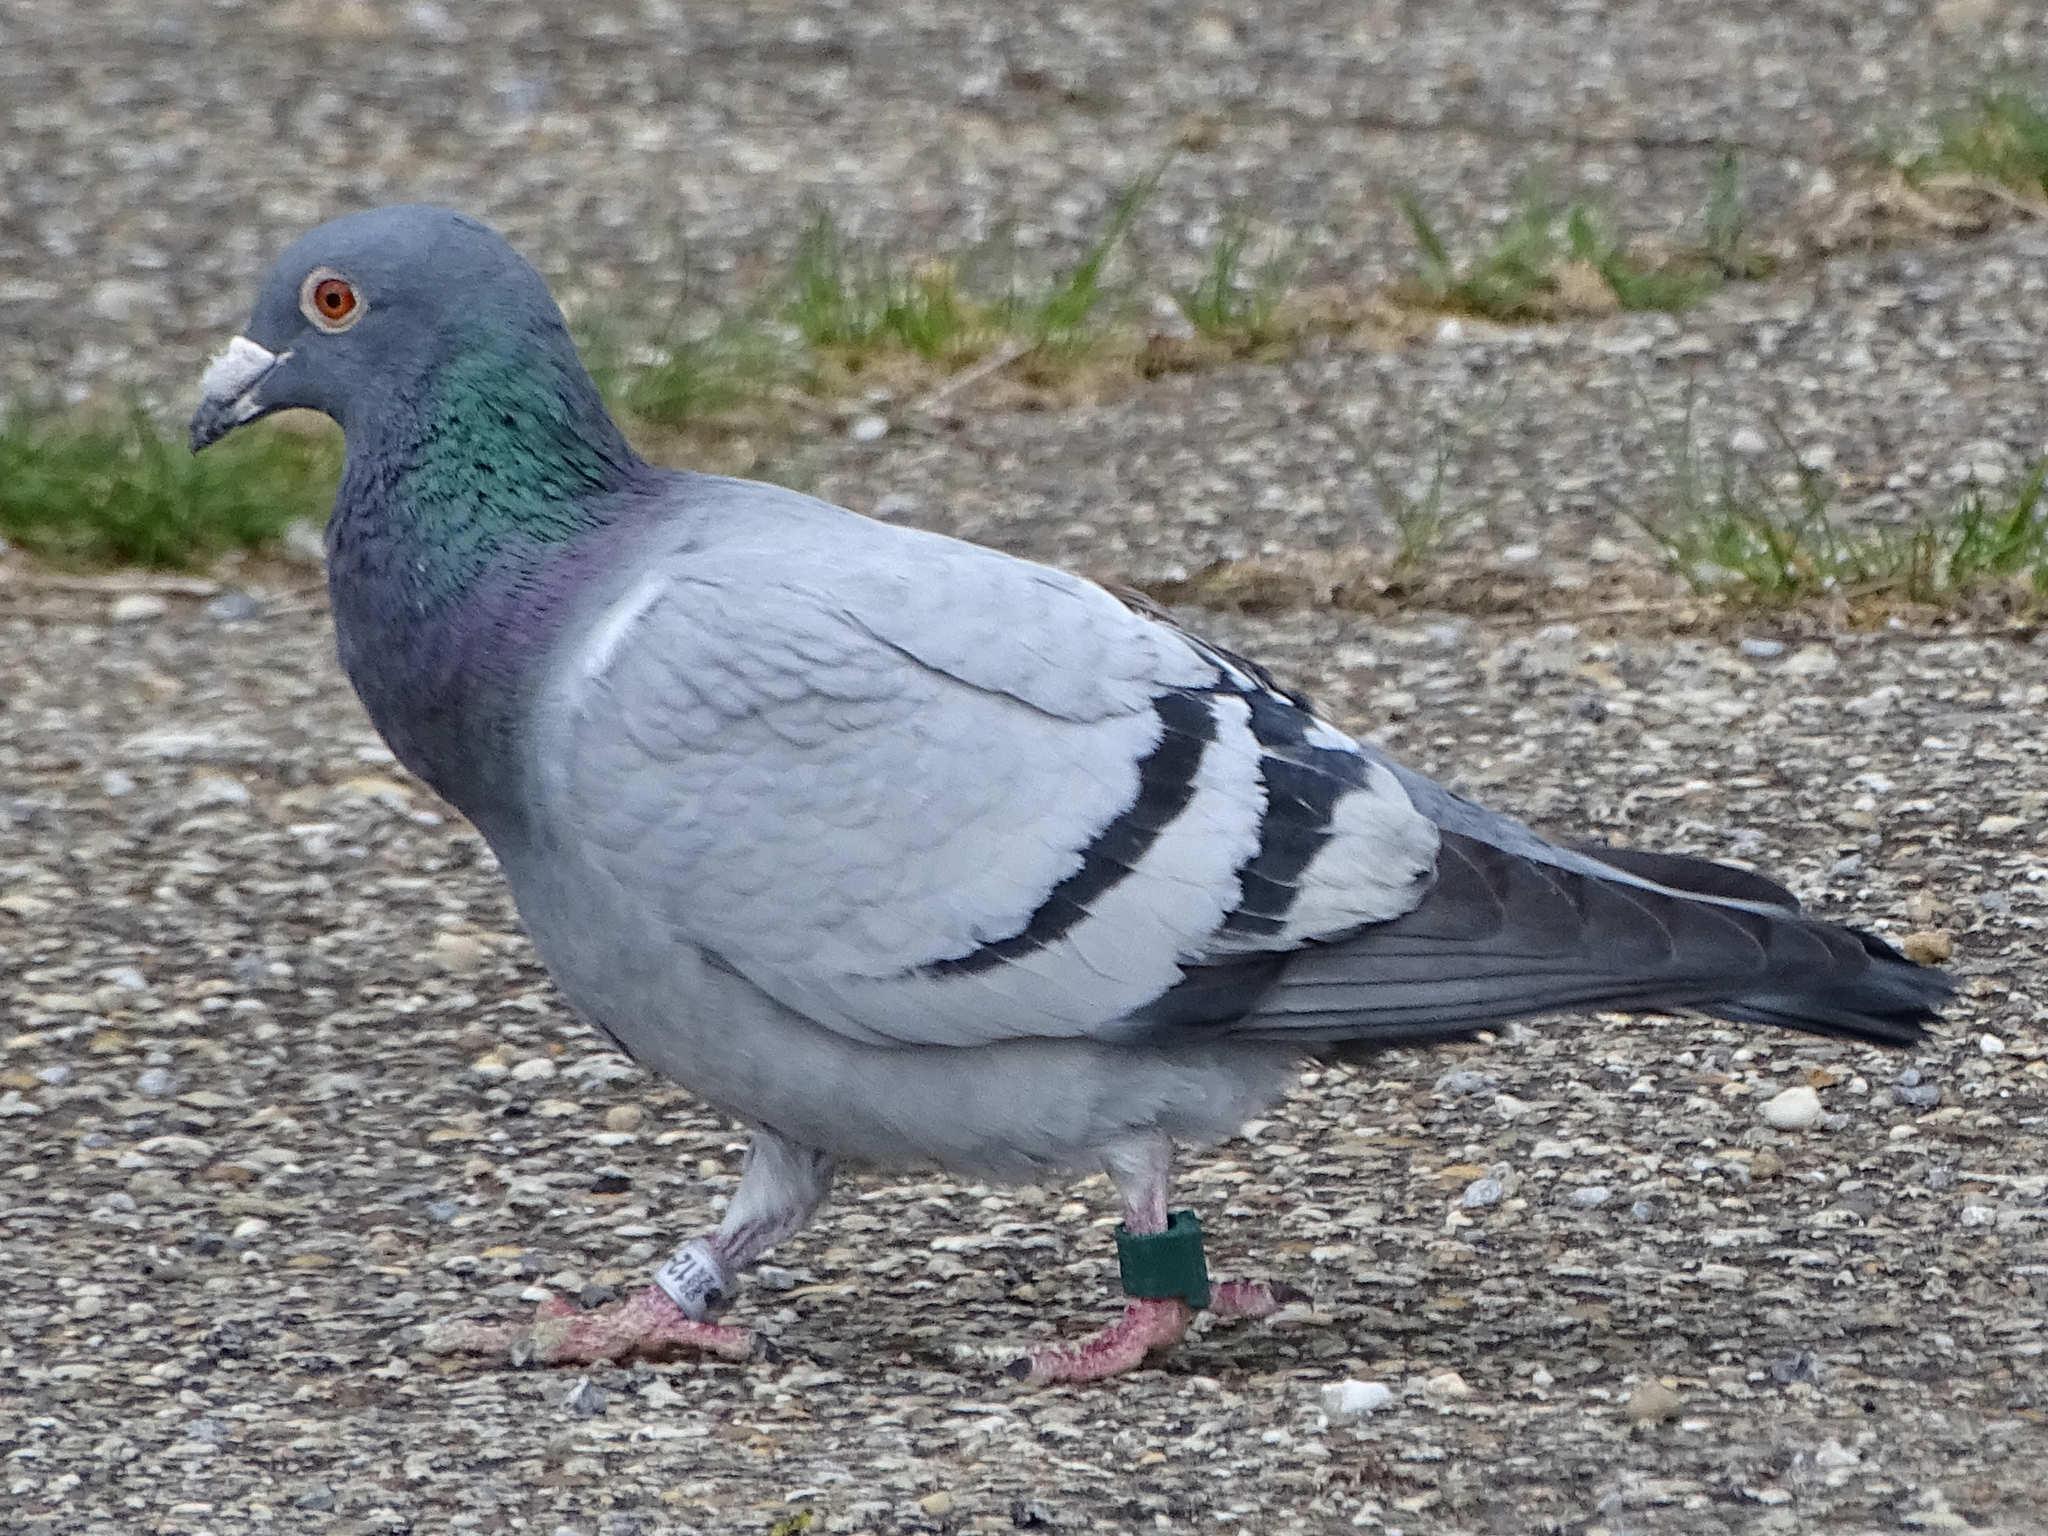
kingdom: Animalia
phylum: Chordata
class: Aves
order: Columbiformes
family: Columbidae
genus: Columba
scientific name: Columba livia
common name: Rock pigeon
